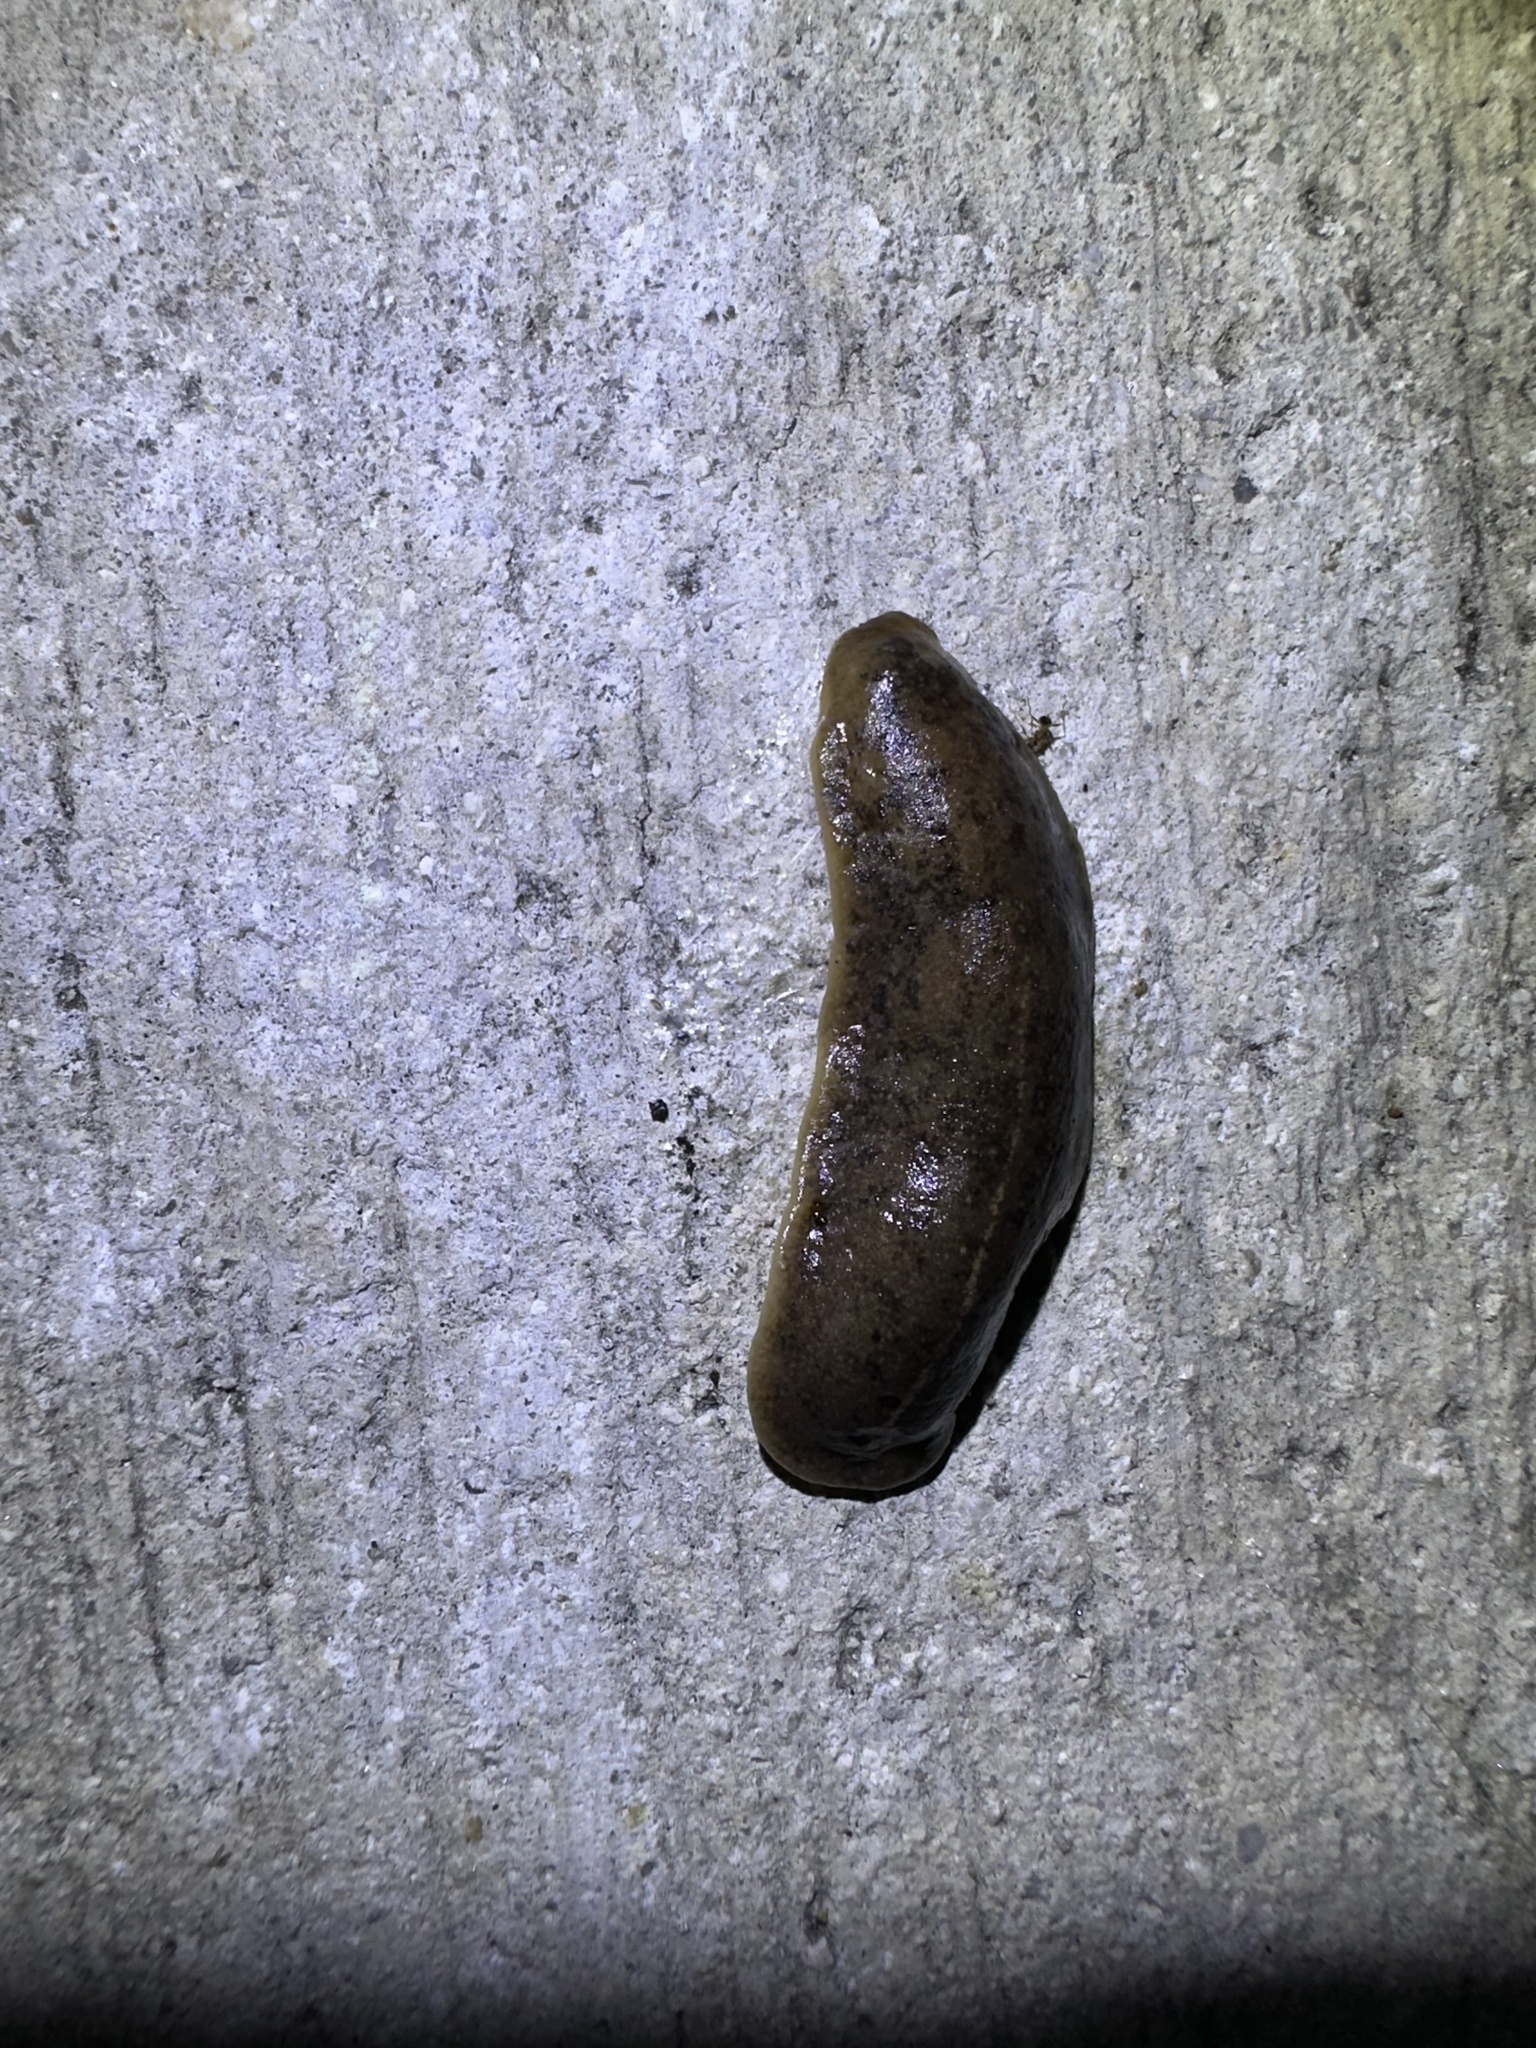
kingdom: Animalia
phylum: Mollusca
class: Gastropoda
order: Systellommatophora
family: Veronicellidae
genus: Leidyula
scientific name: Leidyula floridana
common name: Florida leatherleaf
